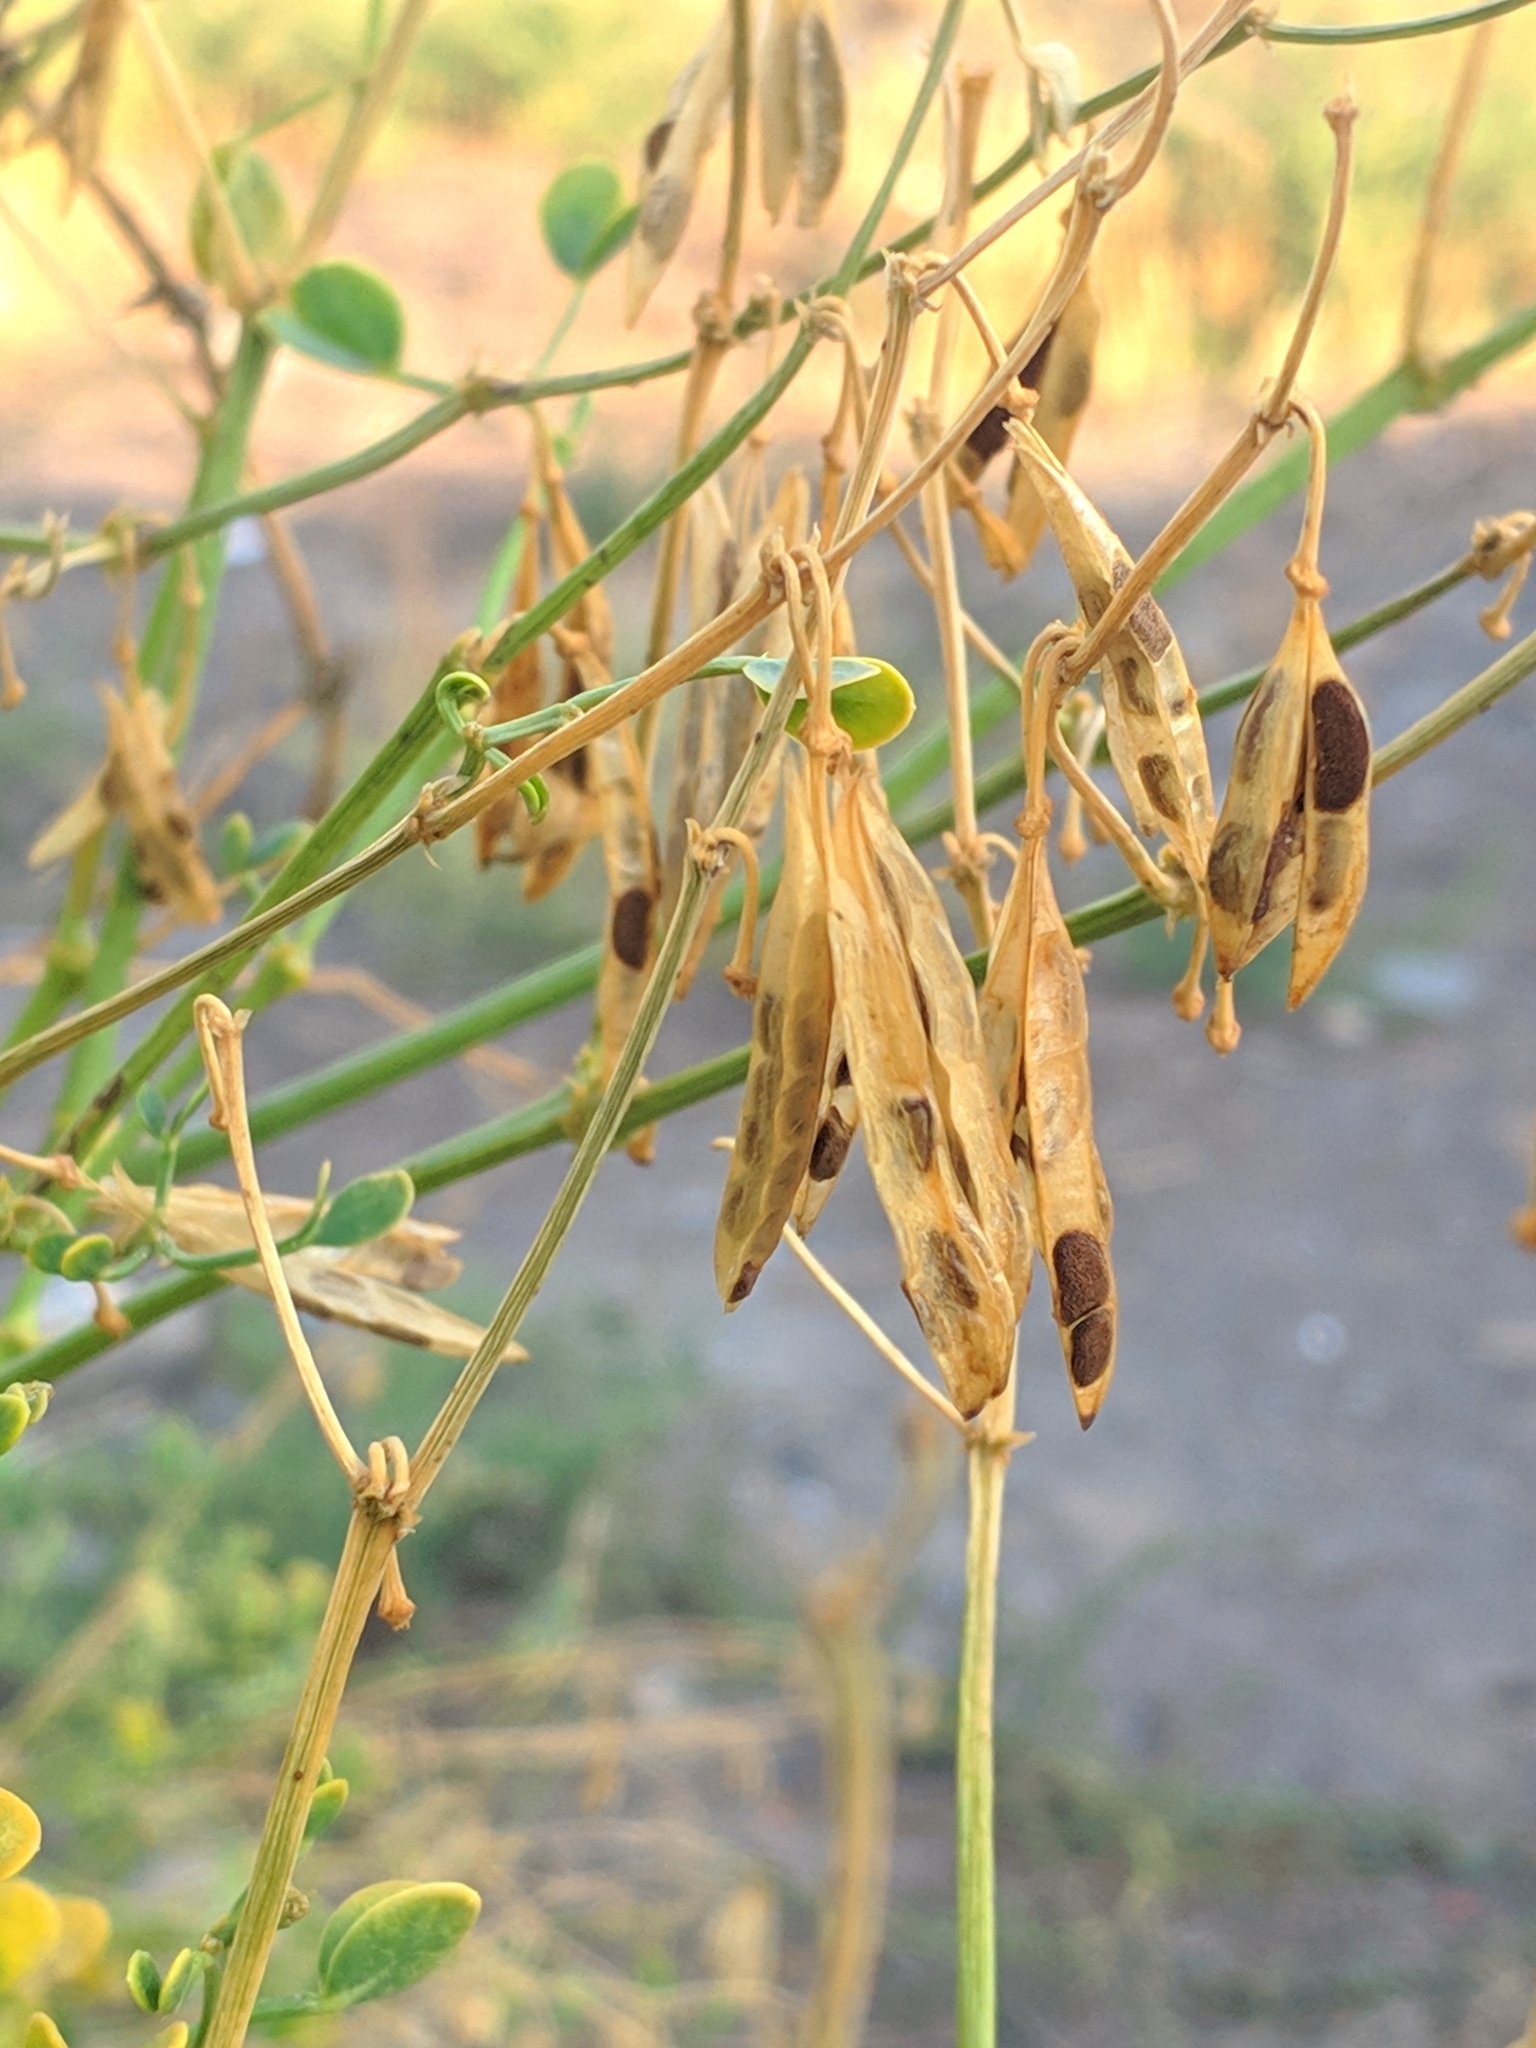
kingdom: Plantae
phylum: Tracheophyta
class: Magnoliopsida
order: Zygophyllales
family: Zygophyllaceae
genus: Zygophyllum
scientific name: Zygophyllum fabago
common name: Syrian beancaper
